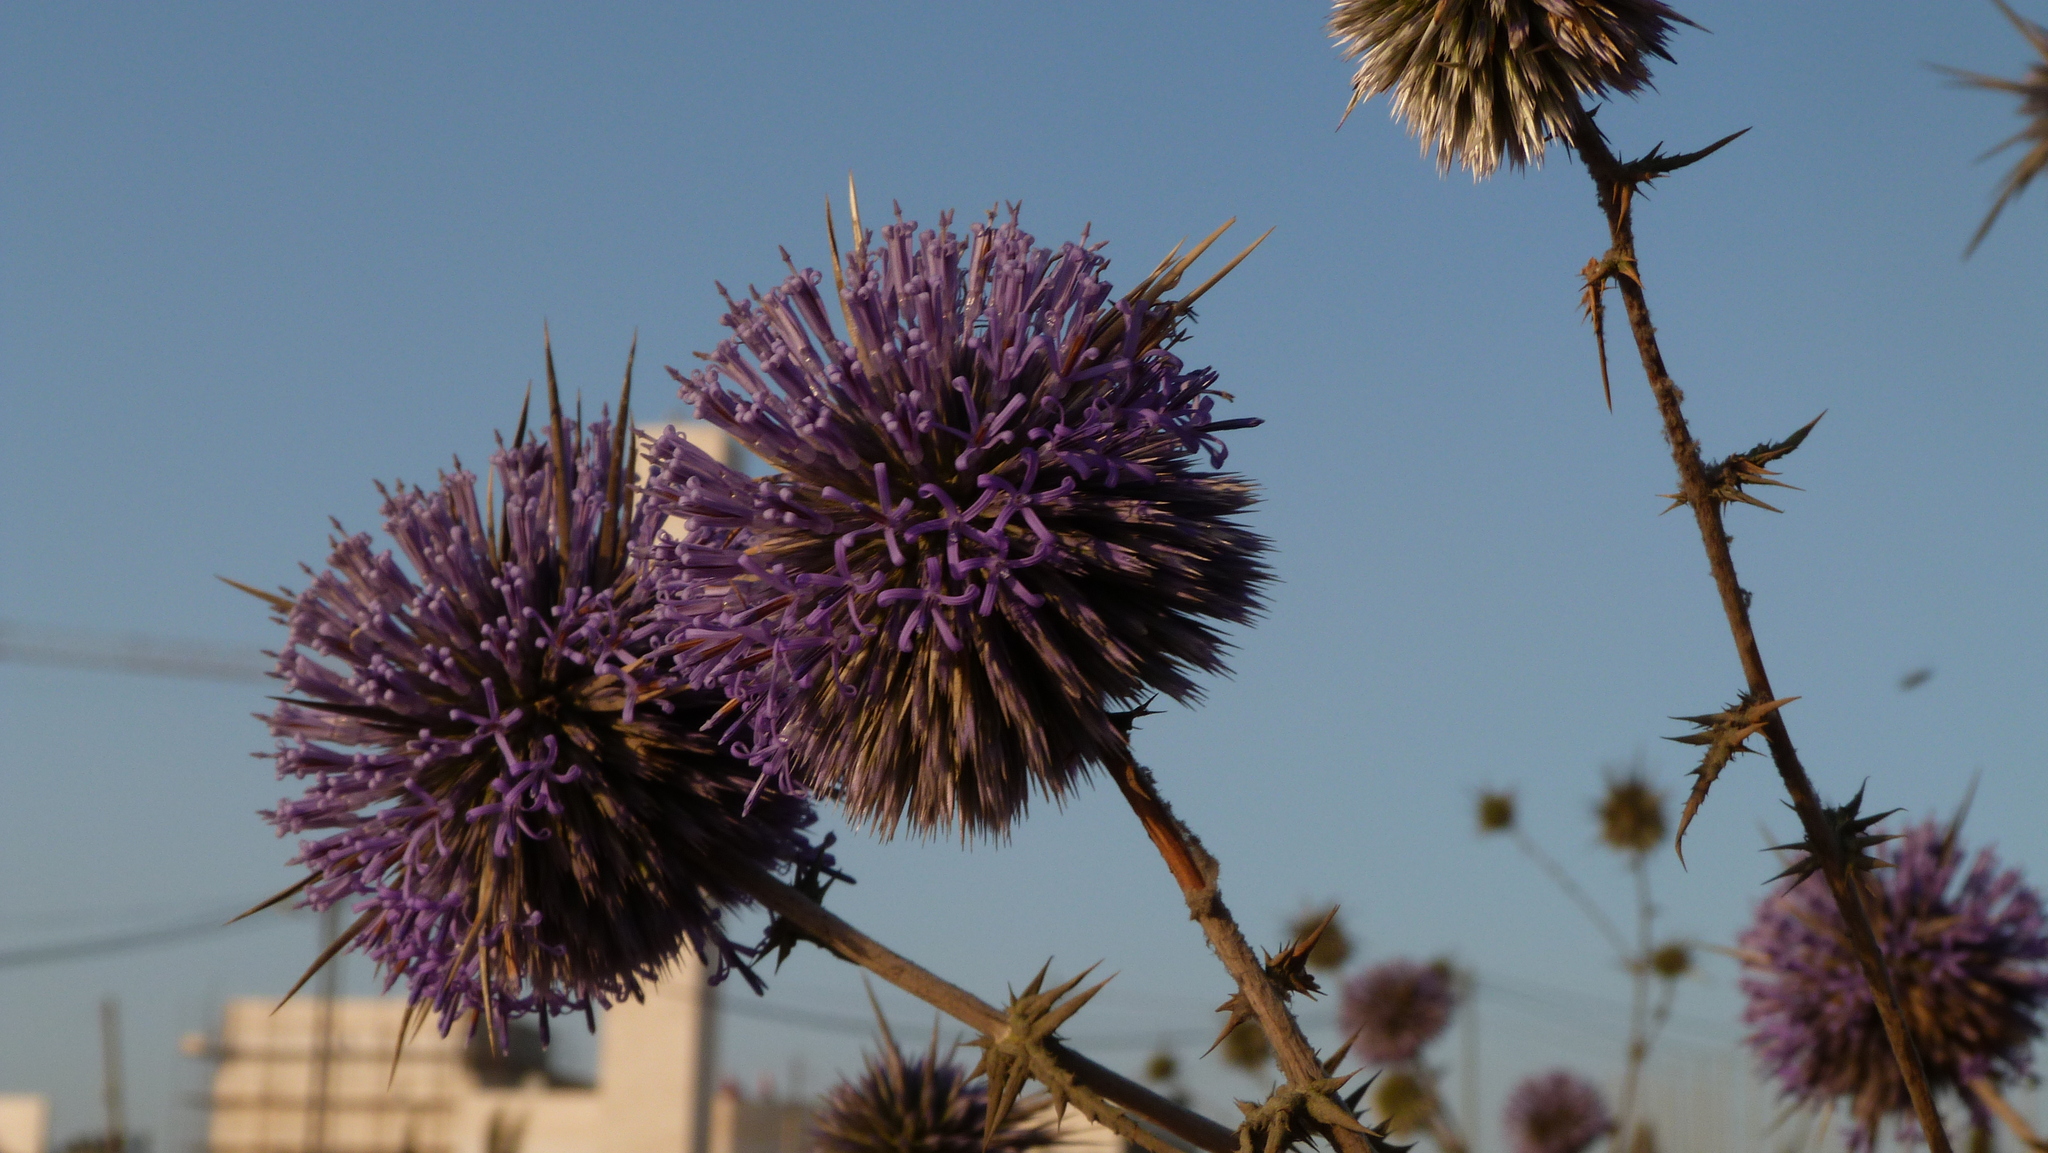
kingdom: Plantae
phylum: Tracheophyta
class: Magnoliopsida
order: Asterales
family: Asteraceae
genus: Echinops
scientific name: Echinops adenocaulos
